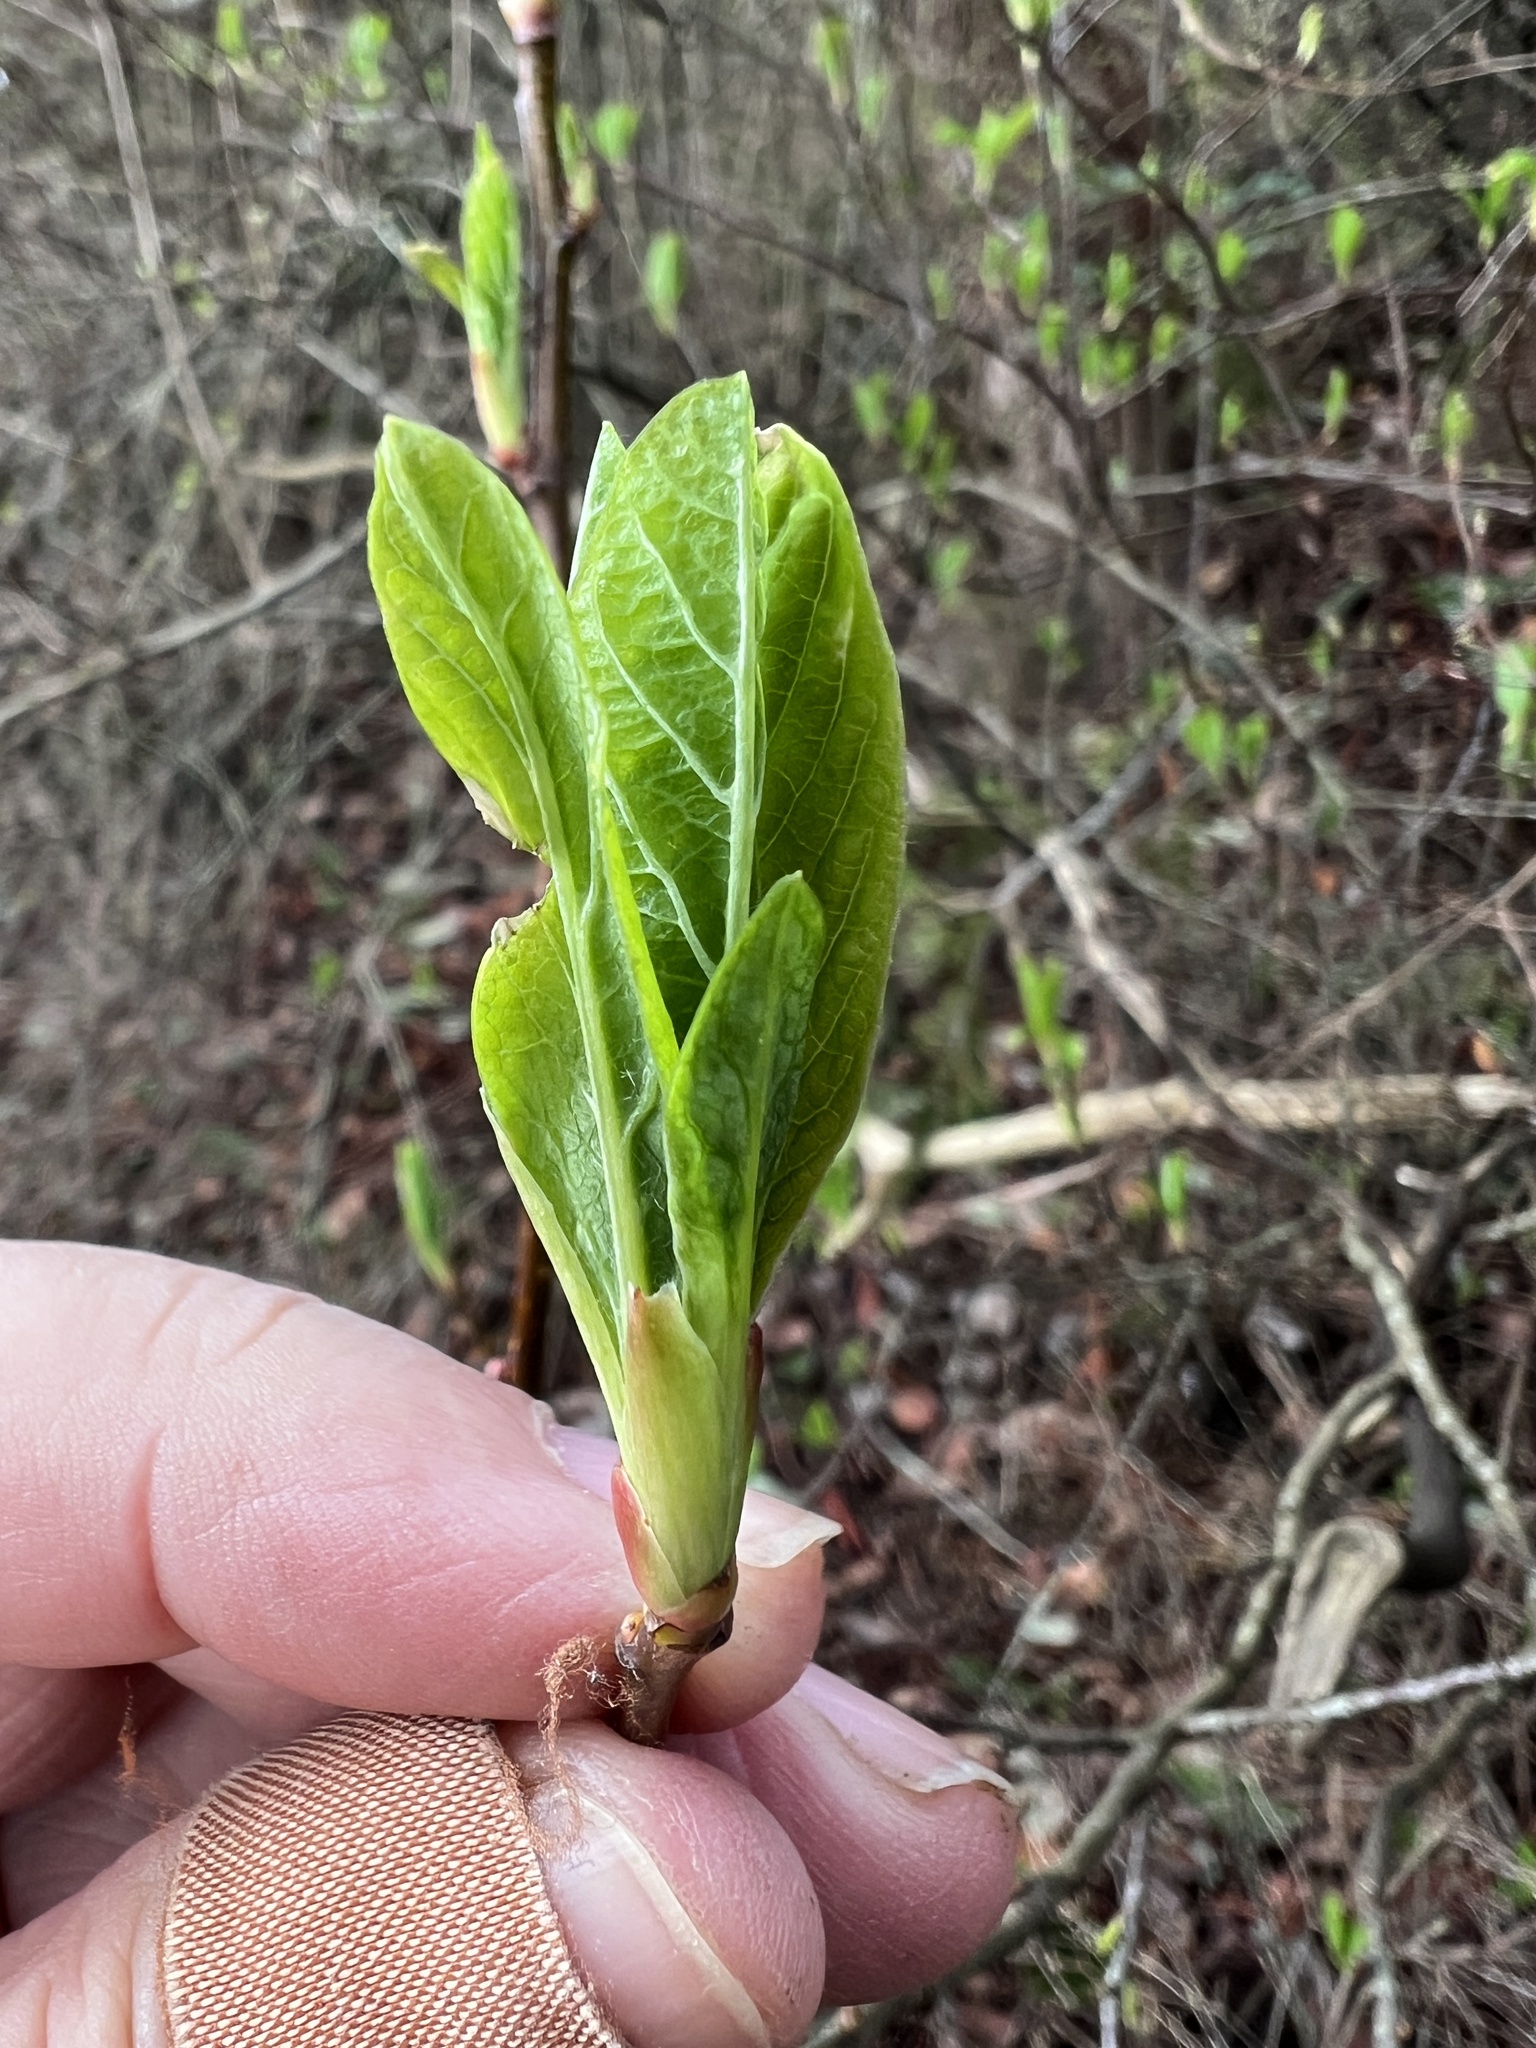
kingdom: Plantae
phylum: Tracheophyta
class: Magnoliopsida
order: Rosales
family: Rosaceae
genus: Oemleria
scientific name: Oemleria cerasiformis
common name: Osoberry
